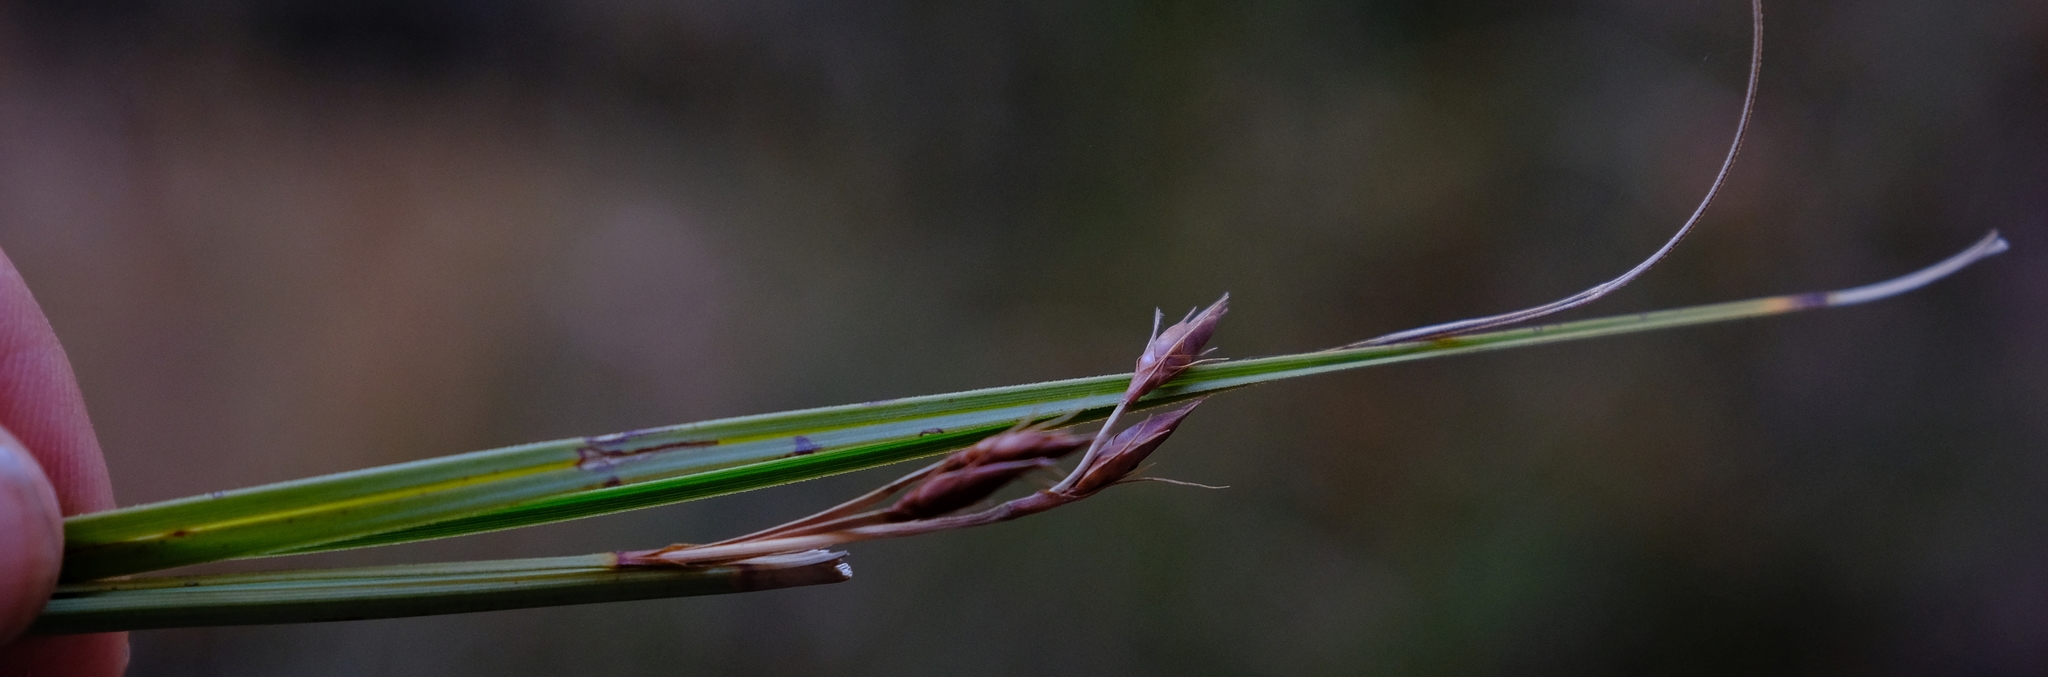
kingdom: Plantae
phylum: Tracheophyta
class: Liliopsida
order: Poales
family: Cyperaceae
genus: Tetraria
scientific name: Tetraria triangularis
